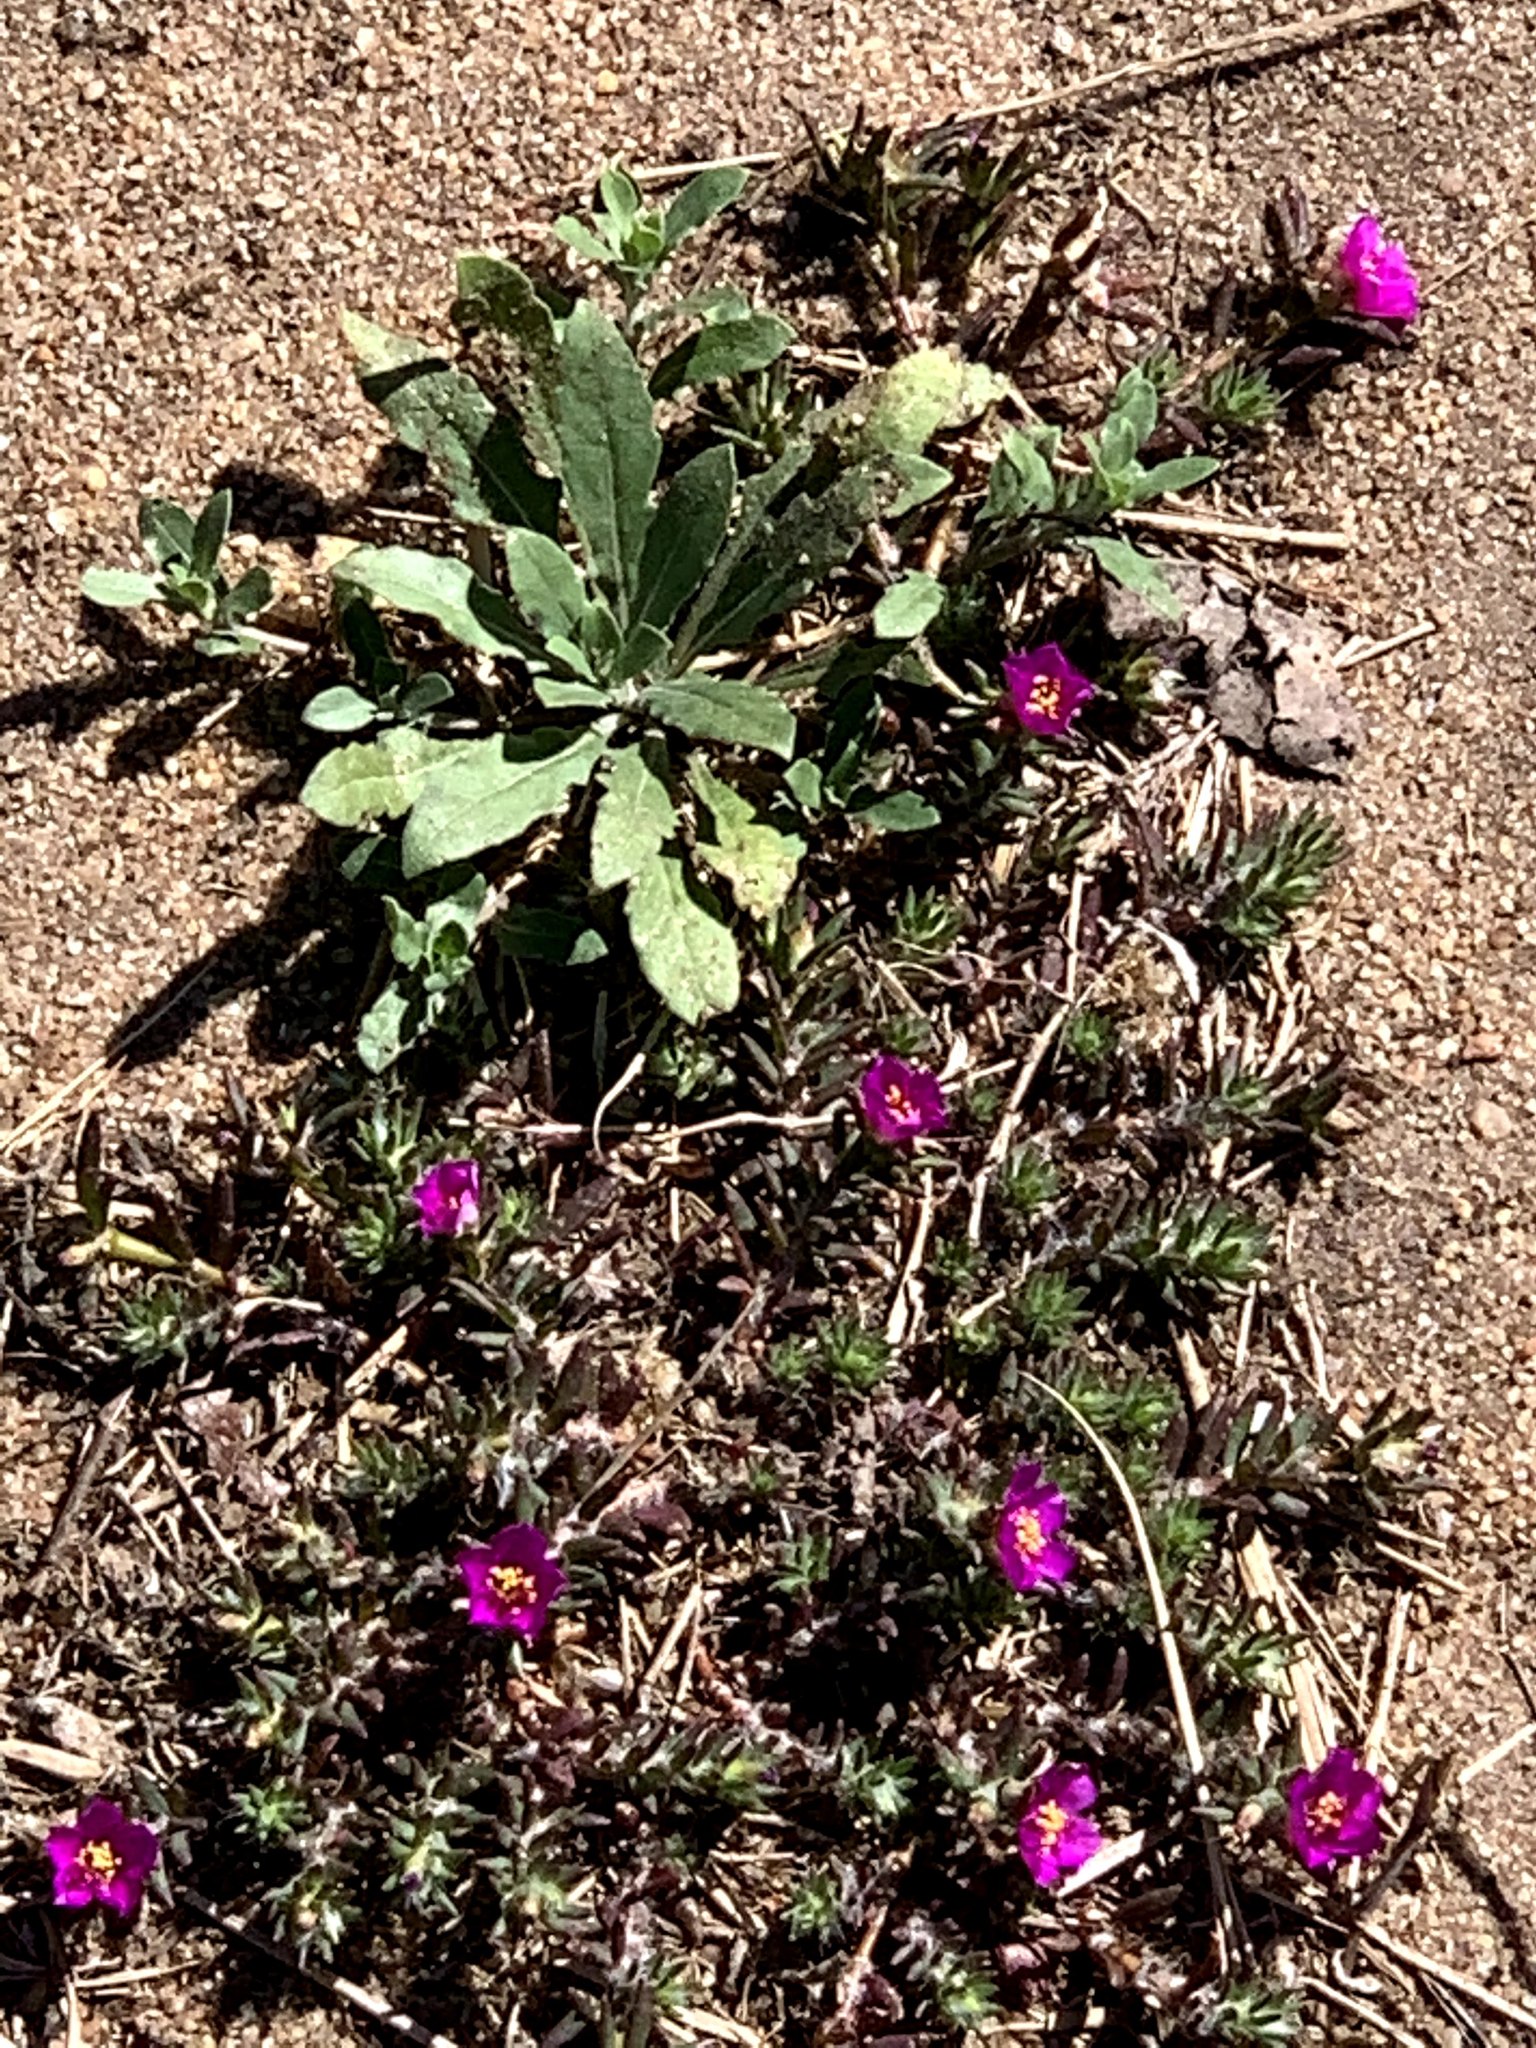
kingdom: Plantae
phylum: Tracheophyta
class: Magnoliopsida
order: Caryophyllales
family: Portulacaceae
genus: Portulaca
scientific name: Portulaca pilosa
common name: Kiss me quick
